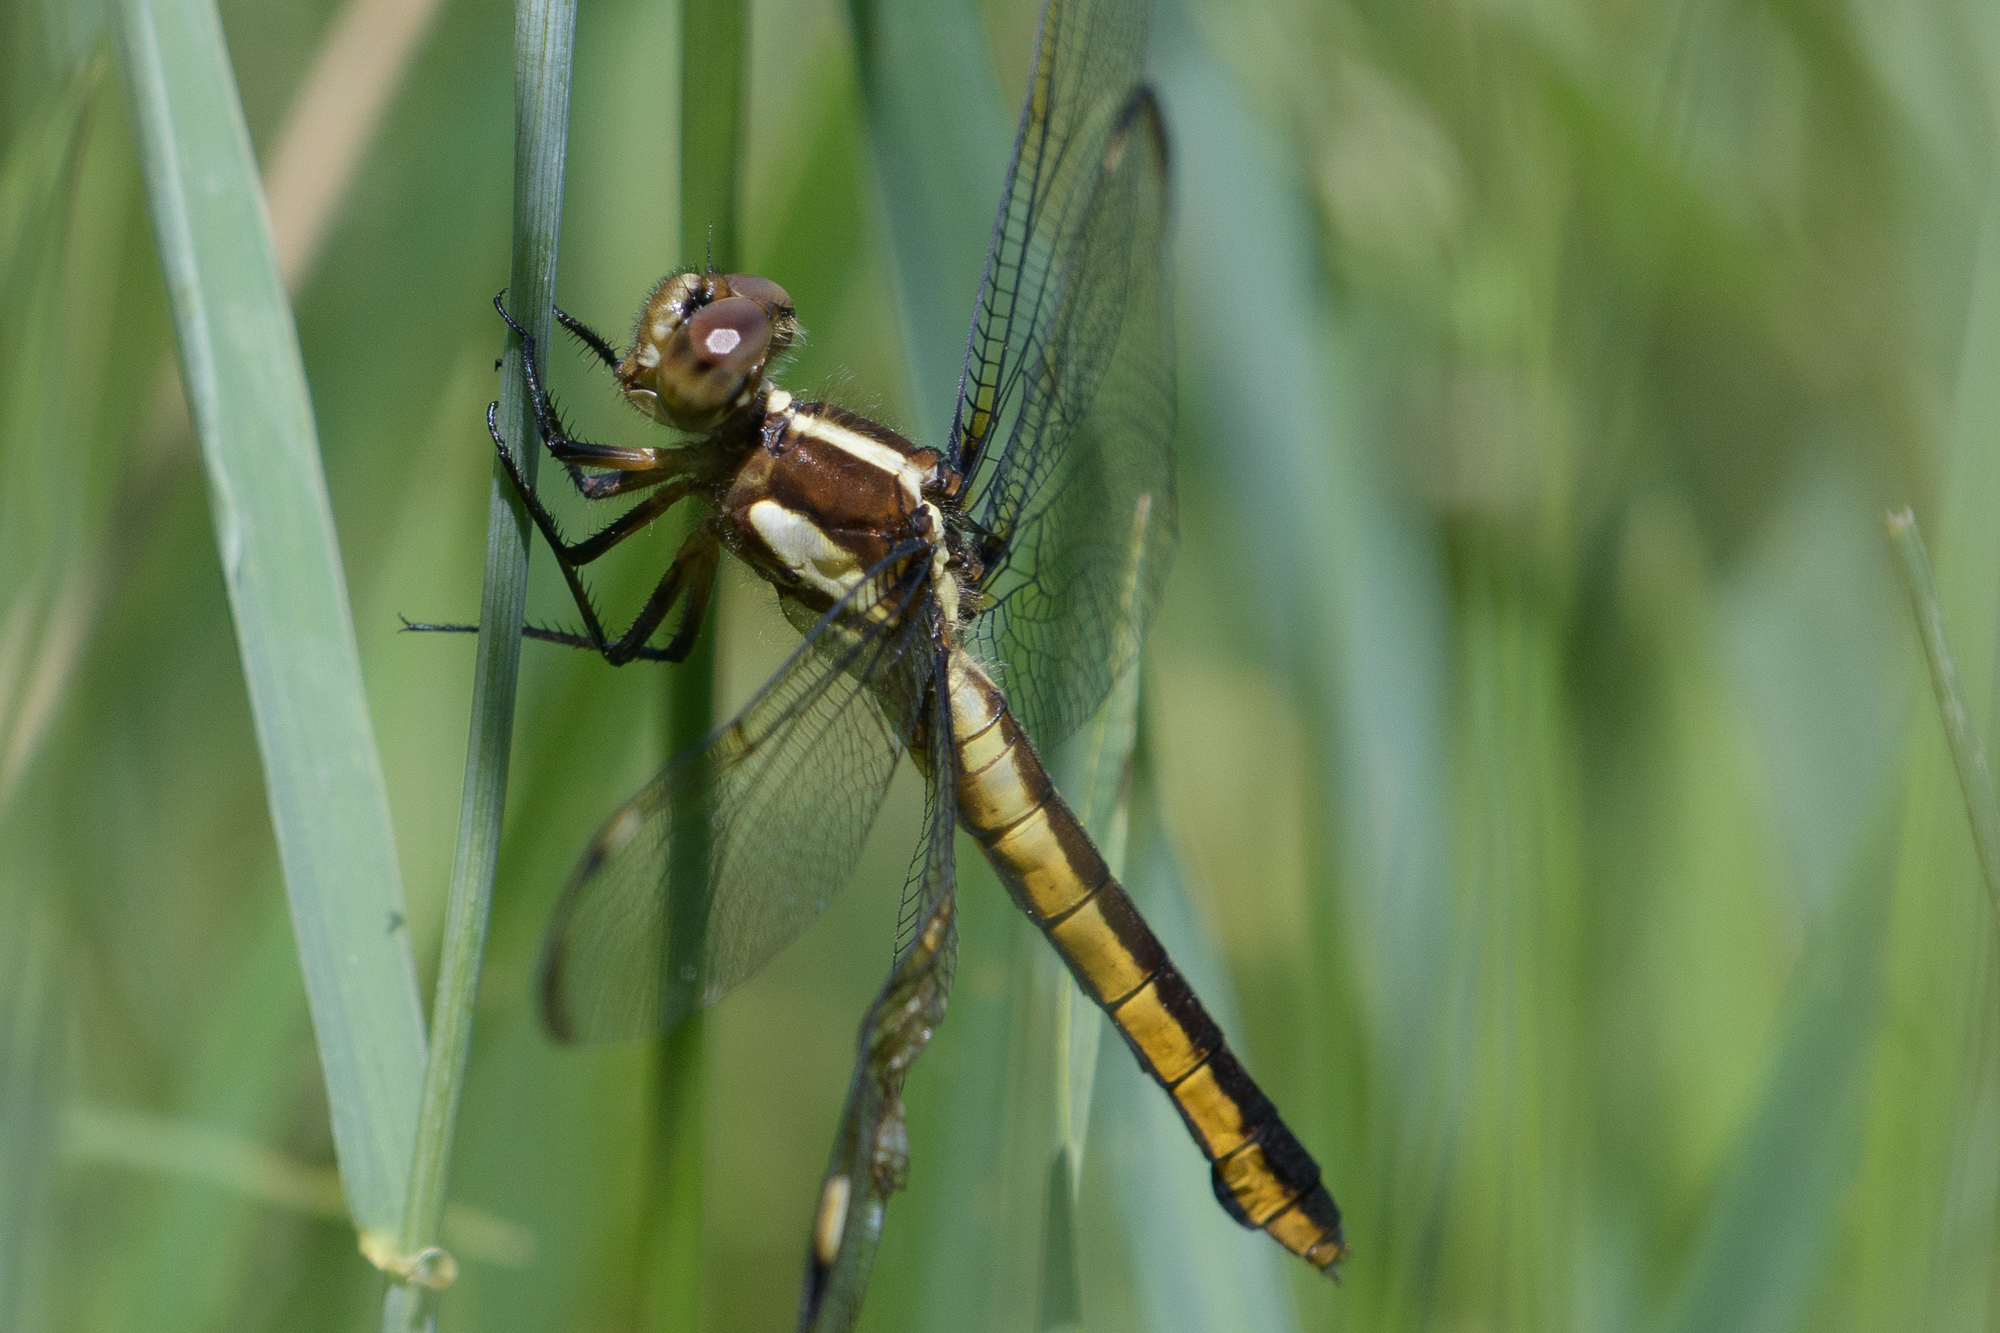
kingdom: Animalia
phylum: Arthropoda
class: Insecta
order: Odonata
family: Libellulidae
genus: Libellula
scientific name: Libellula cyanea
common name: Spangled skimmer
